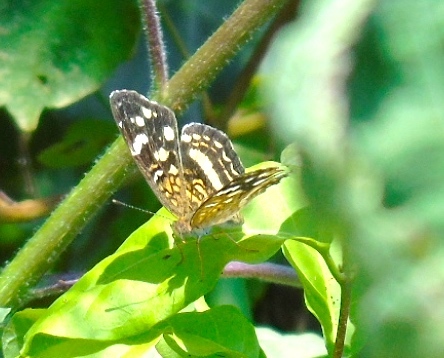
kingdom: Animalia
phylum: Arthropoda
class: Insecta
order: Lepidoptera
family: Nymphalidae
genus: Anthanassa
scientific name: Anthanassa tulcis
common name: Pale-banded crescent
